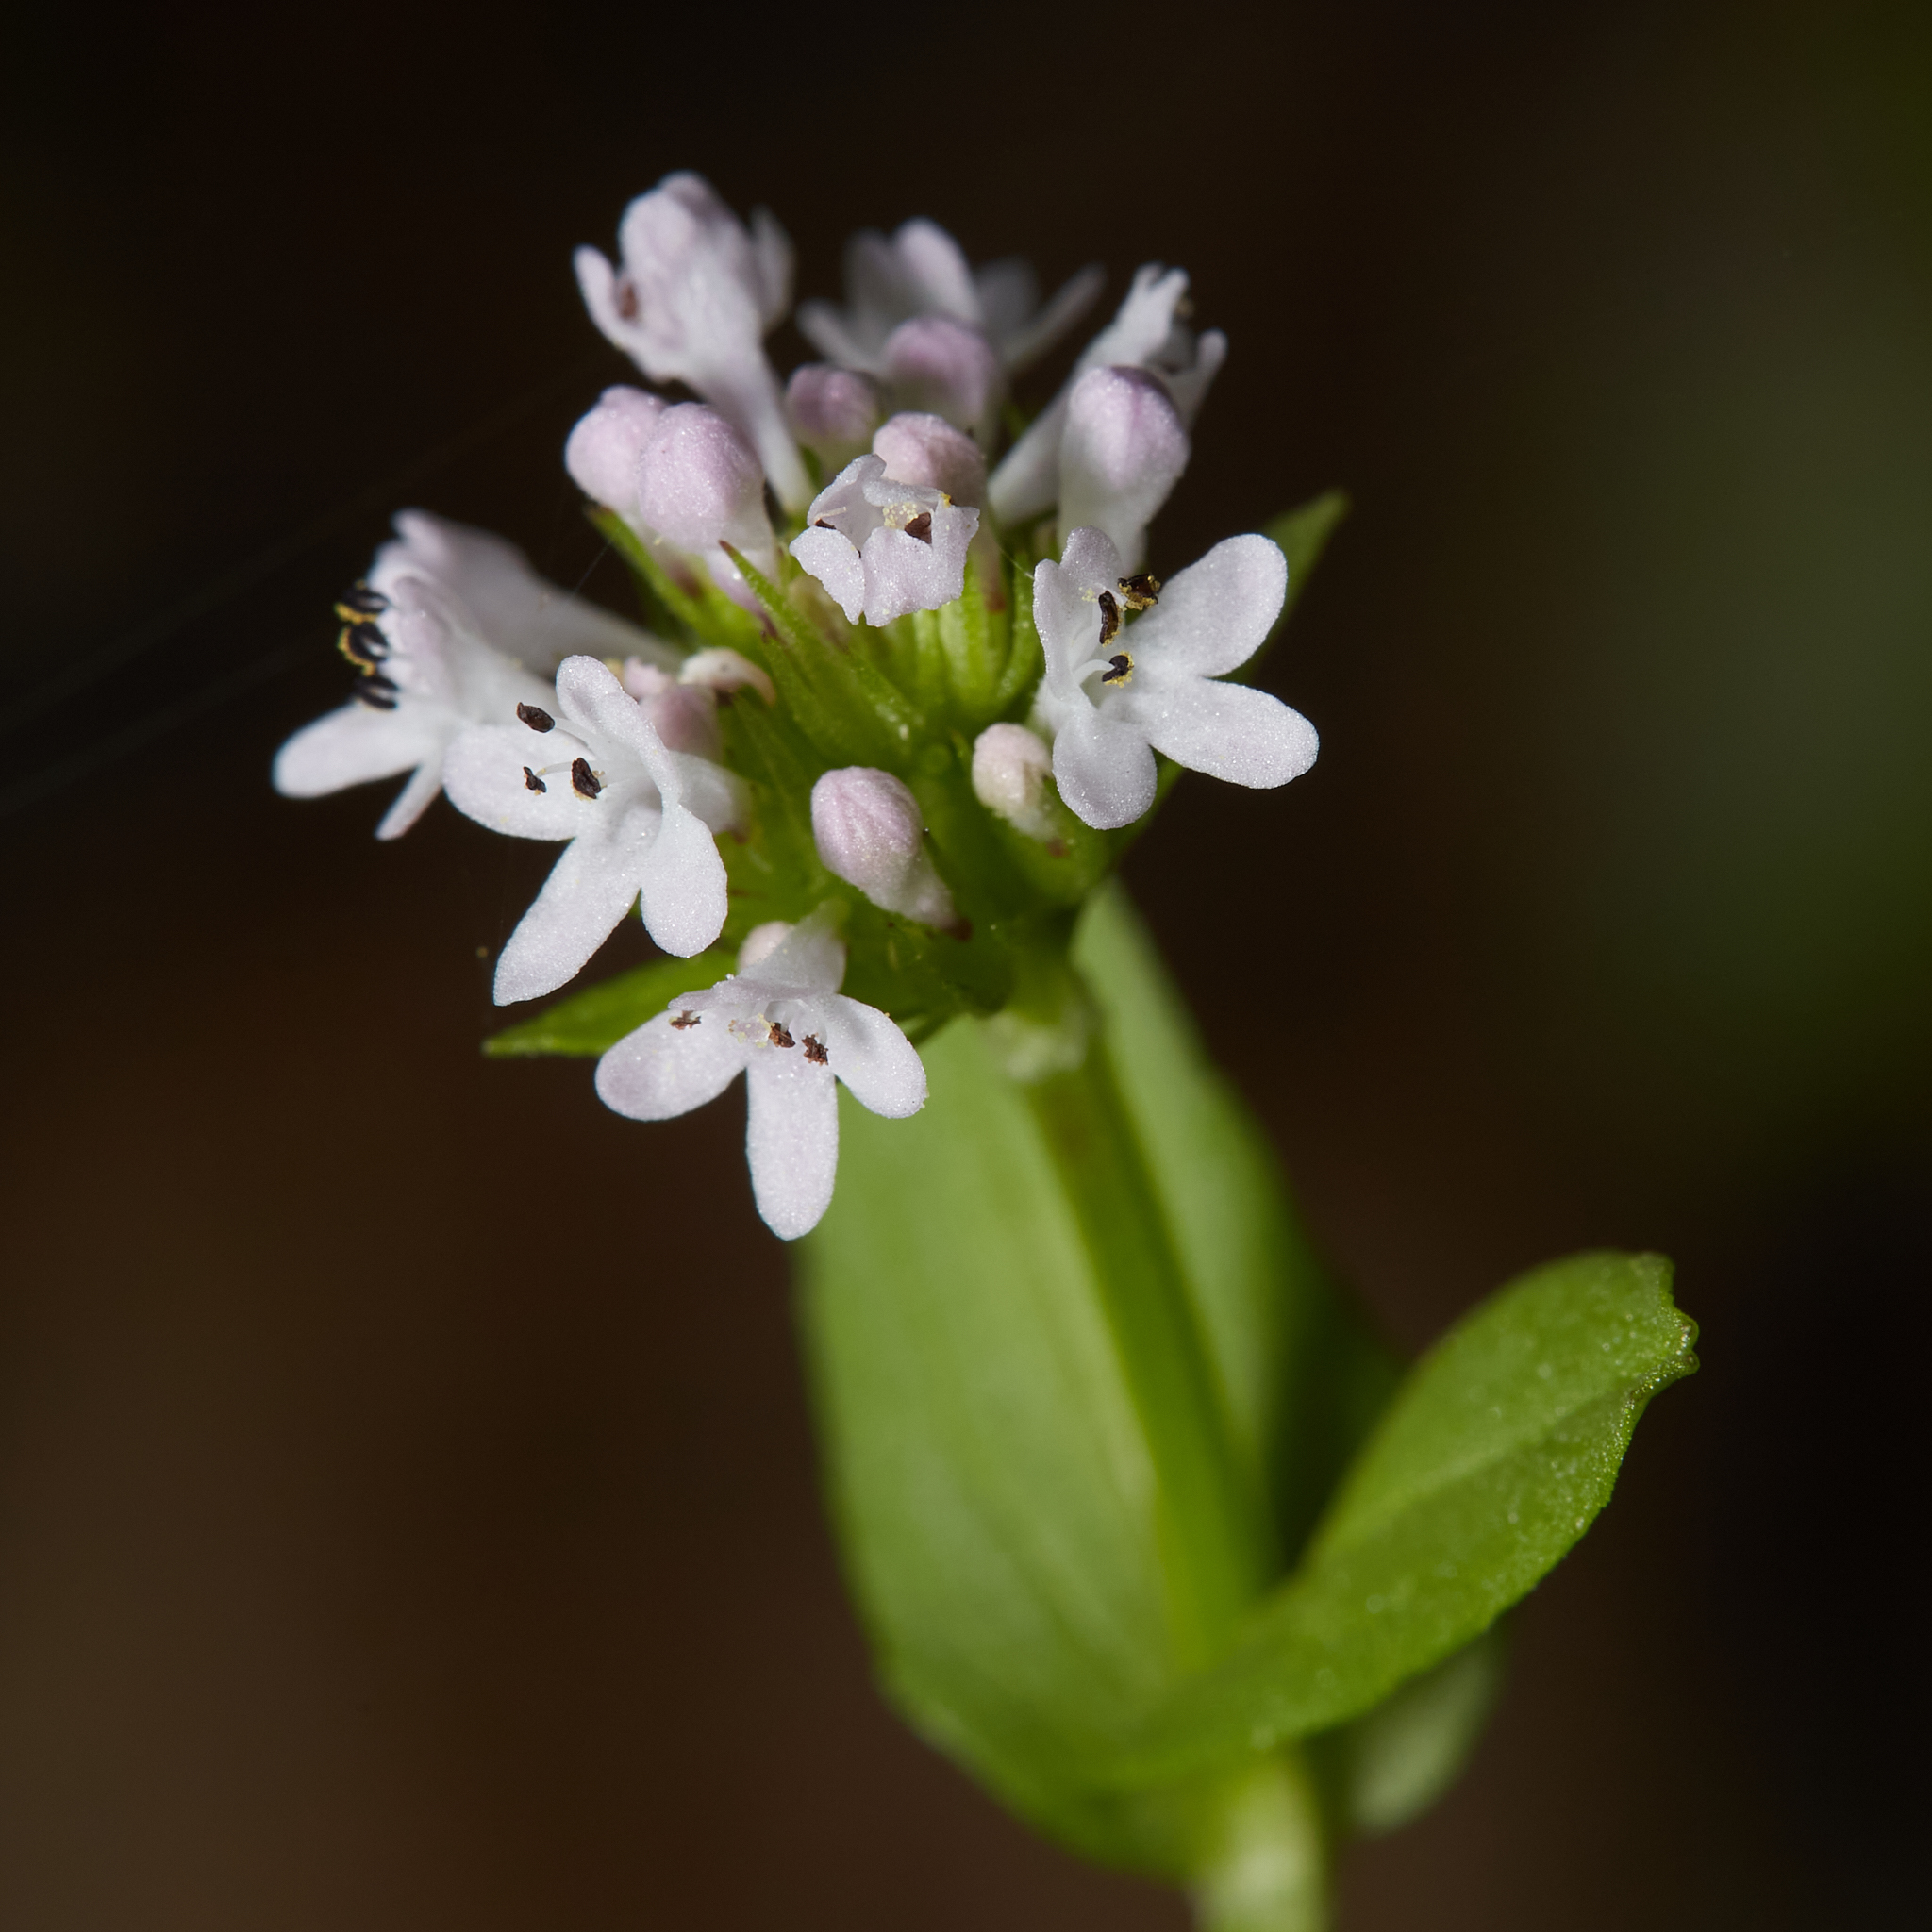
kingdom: Plantae
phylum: Tracheophyta
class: Magnoliopsida
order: Dipsacales
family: Caprifoliaceae
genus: Plectritis
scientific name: Plectritis congesta
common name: Pink plectritis
